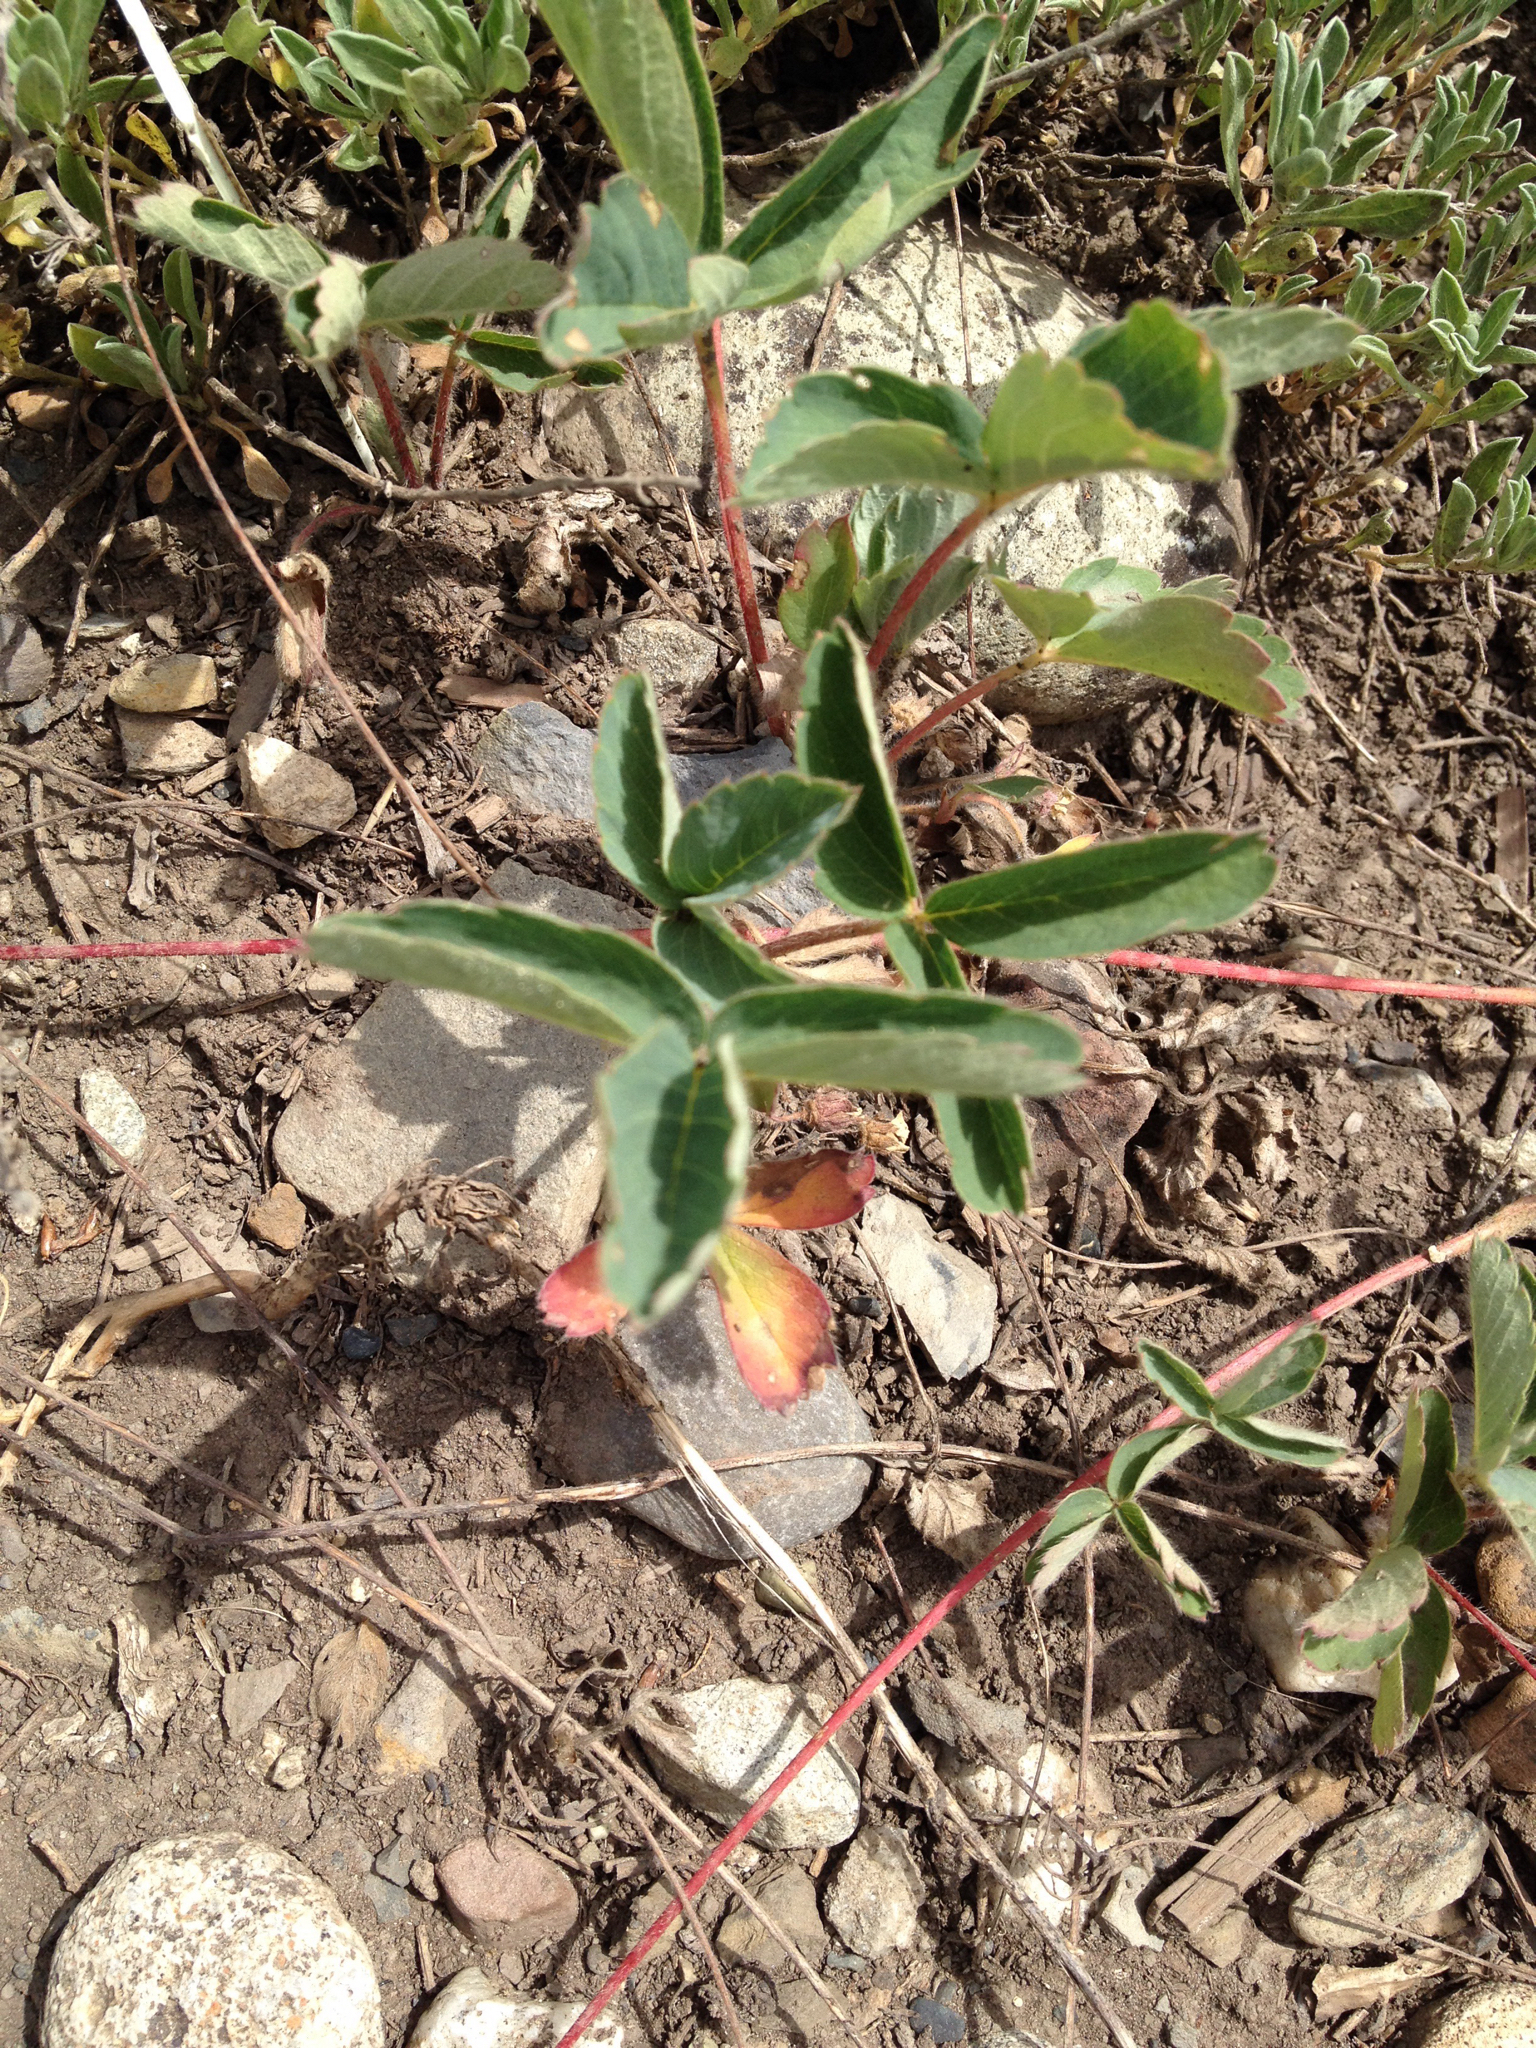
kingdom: Plantae
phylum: Tracheophyta
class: Magnoliopsida
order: Rosales
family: Rosaceae
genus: Fragaria
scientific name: Fragaria virginiana
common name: Thickleaved wild strawberry
